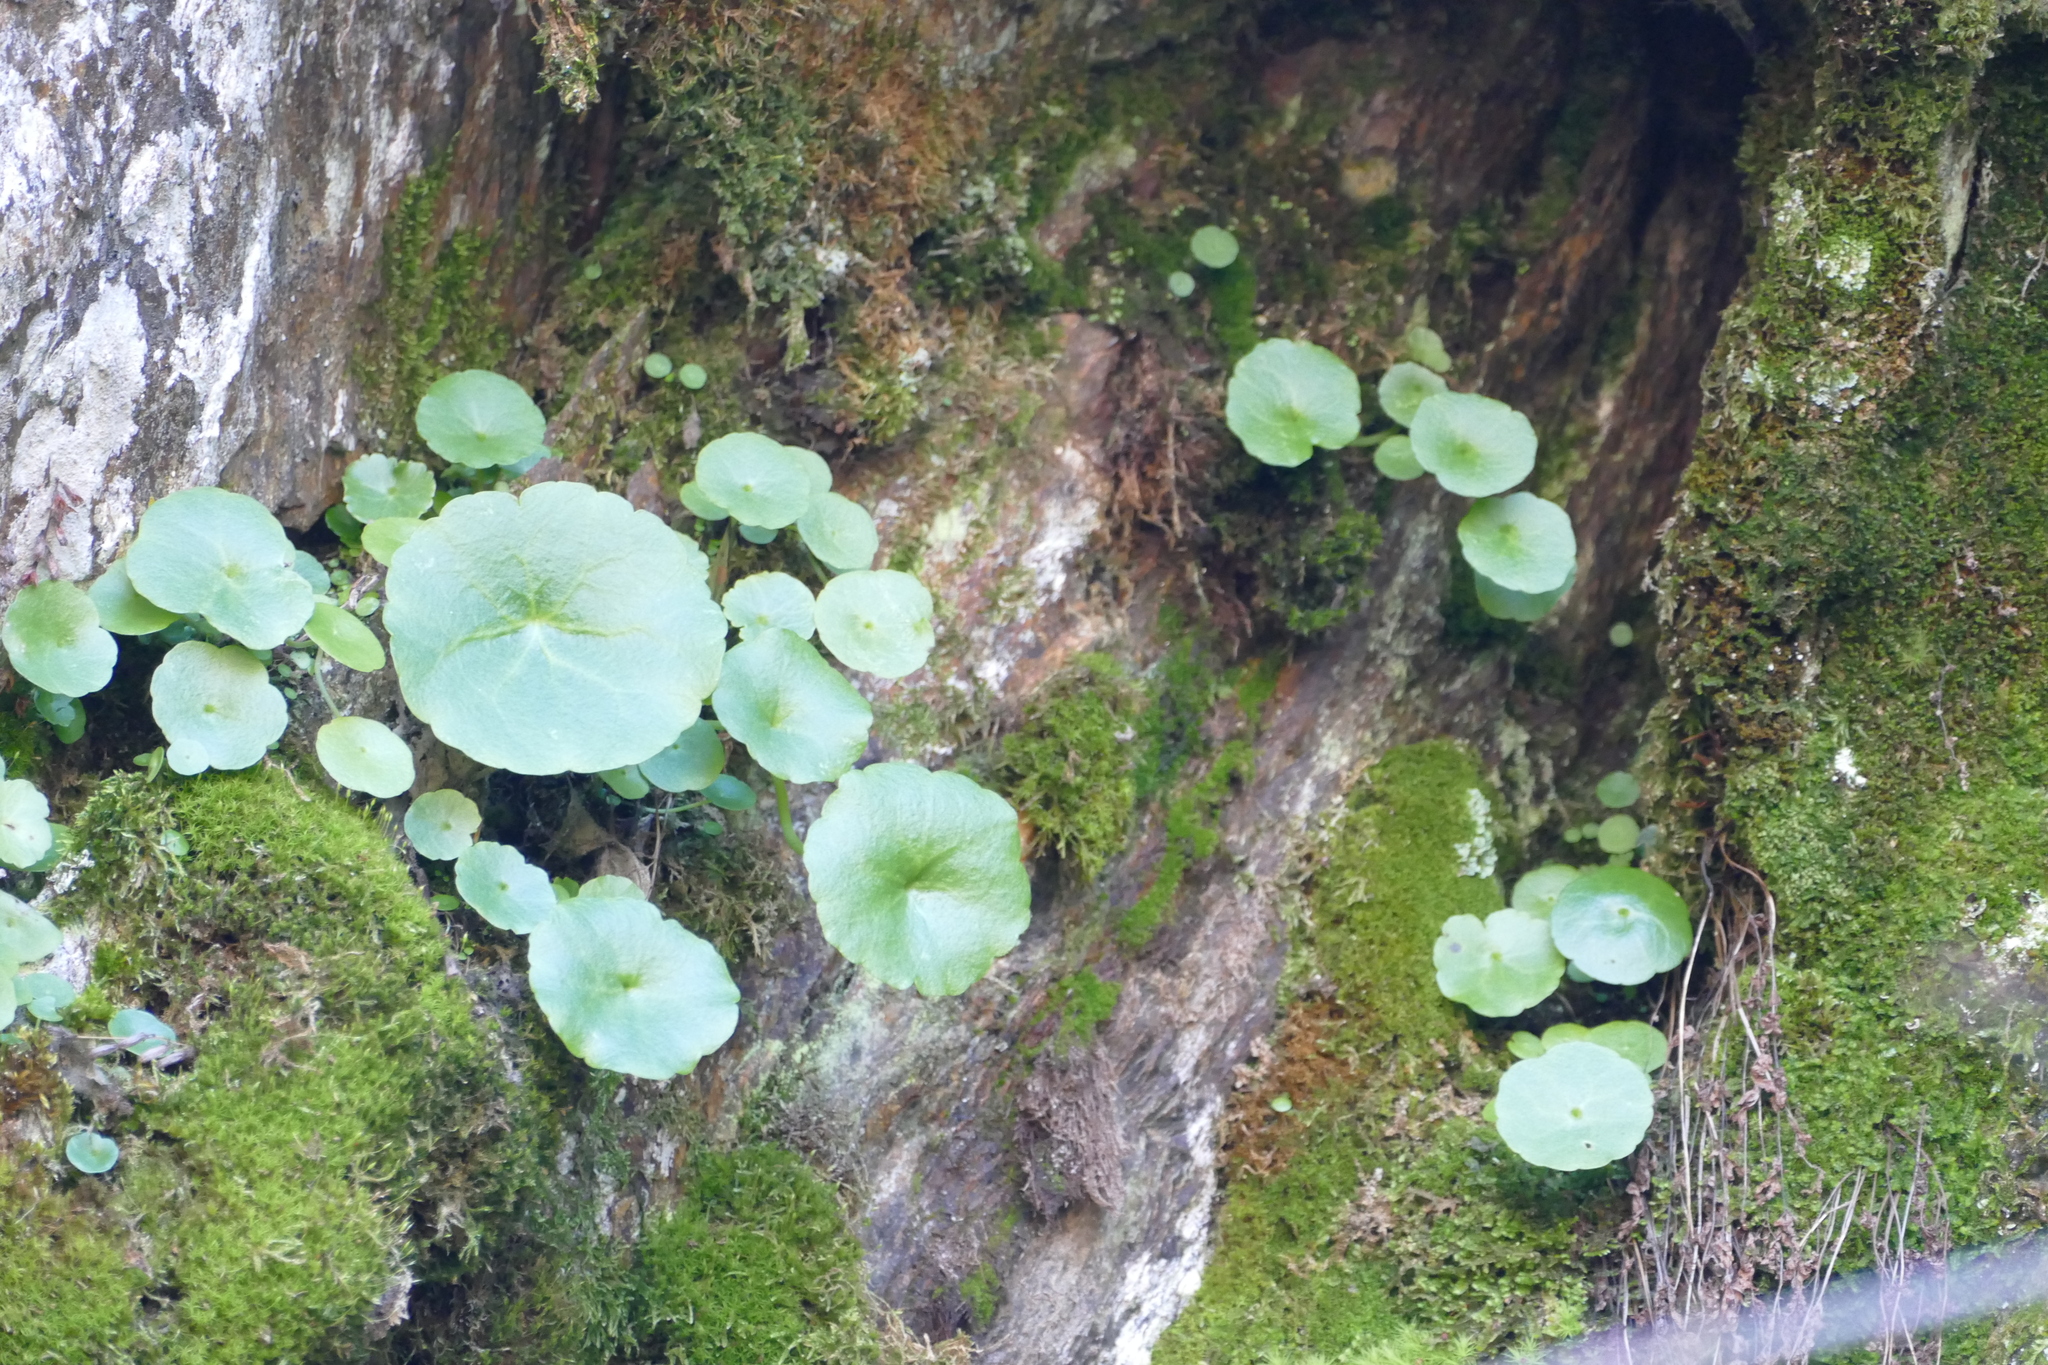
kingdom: Plantae
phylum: Tracheophyta
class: Magnoliopsida
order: Saxifragales
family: Crassulaceae
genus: Umbilicus
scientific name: Umbilicus rupestris
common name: Navelwort
